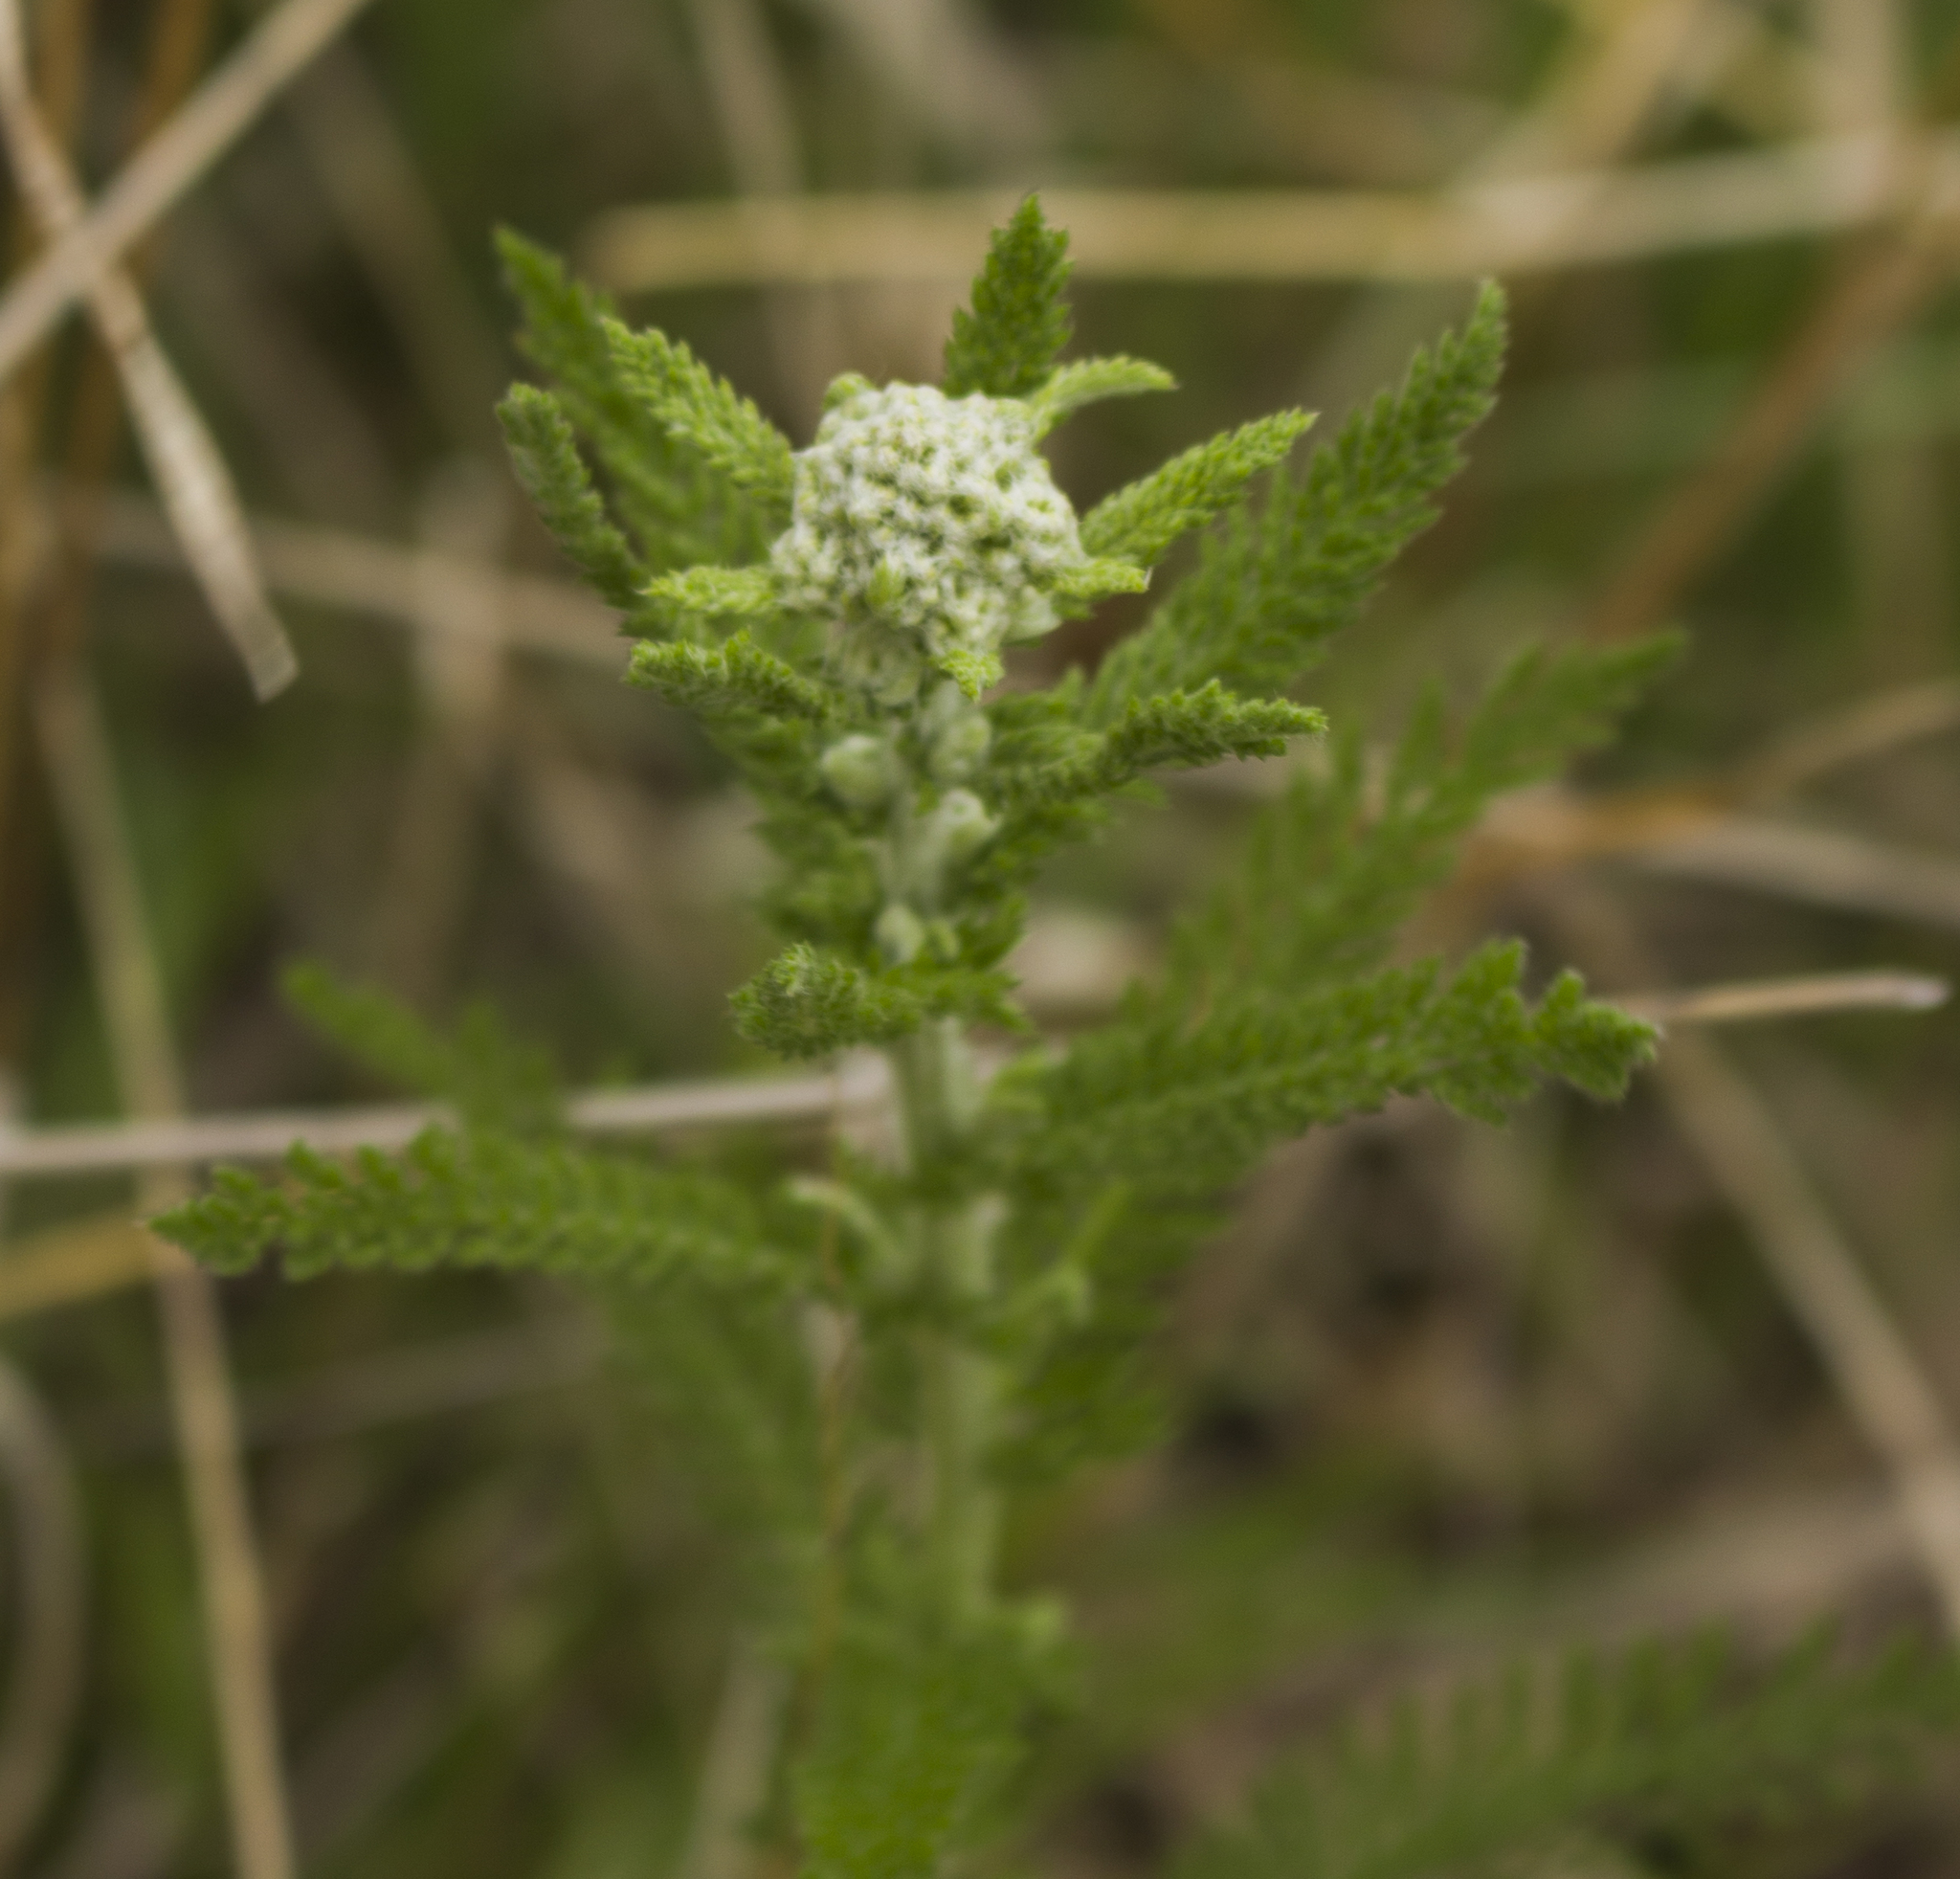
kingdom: Plantae
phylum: Tracheophyta
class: Magnoliopsida
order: Asterales
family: Asteraceae
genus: Achillea
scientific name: Achillea millefolium
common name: Yarrow
